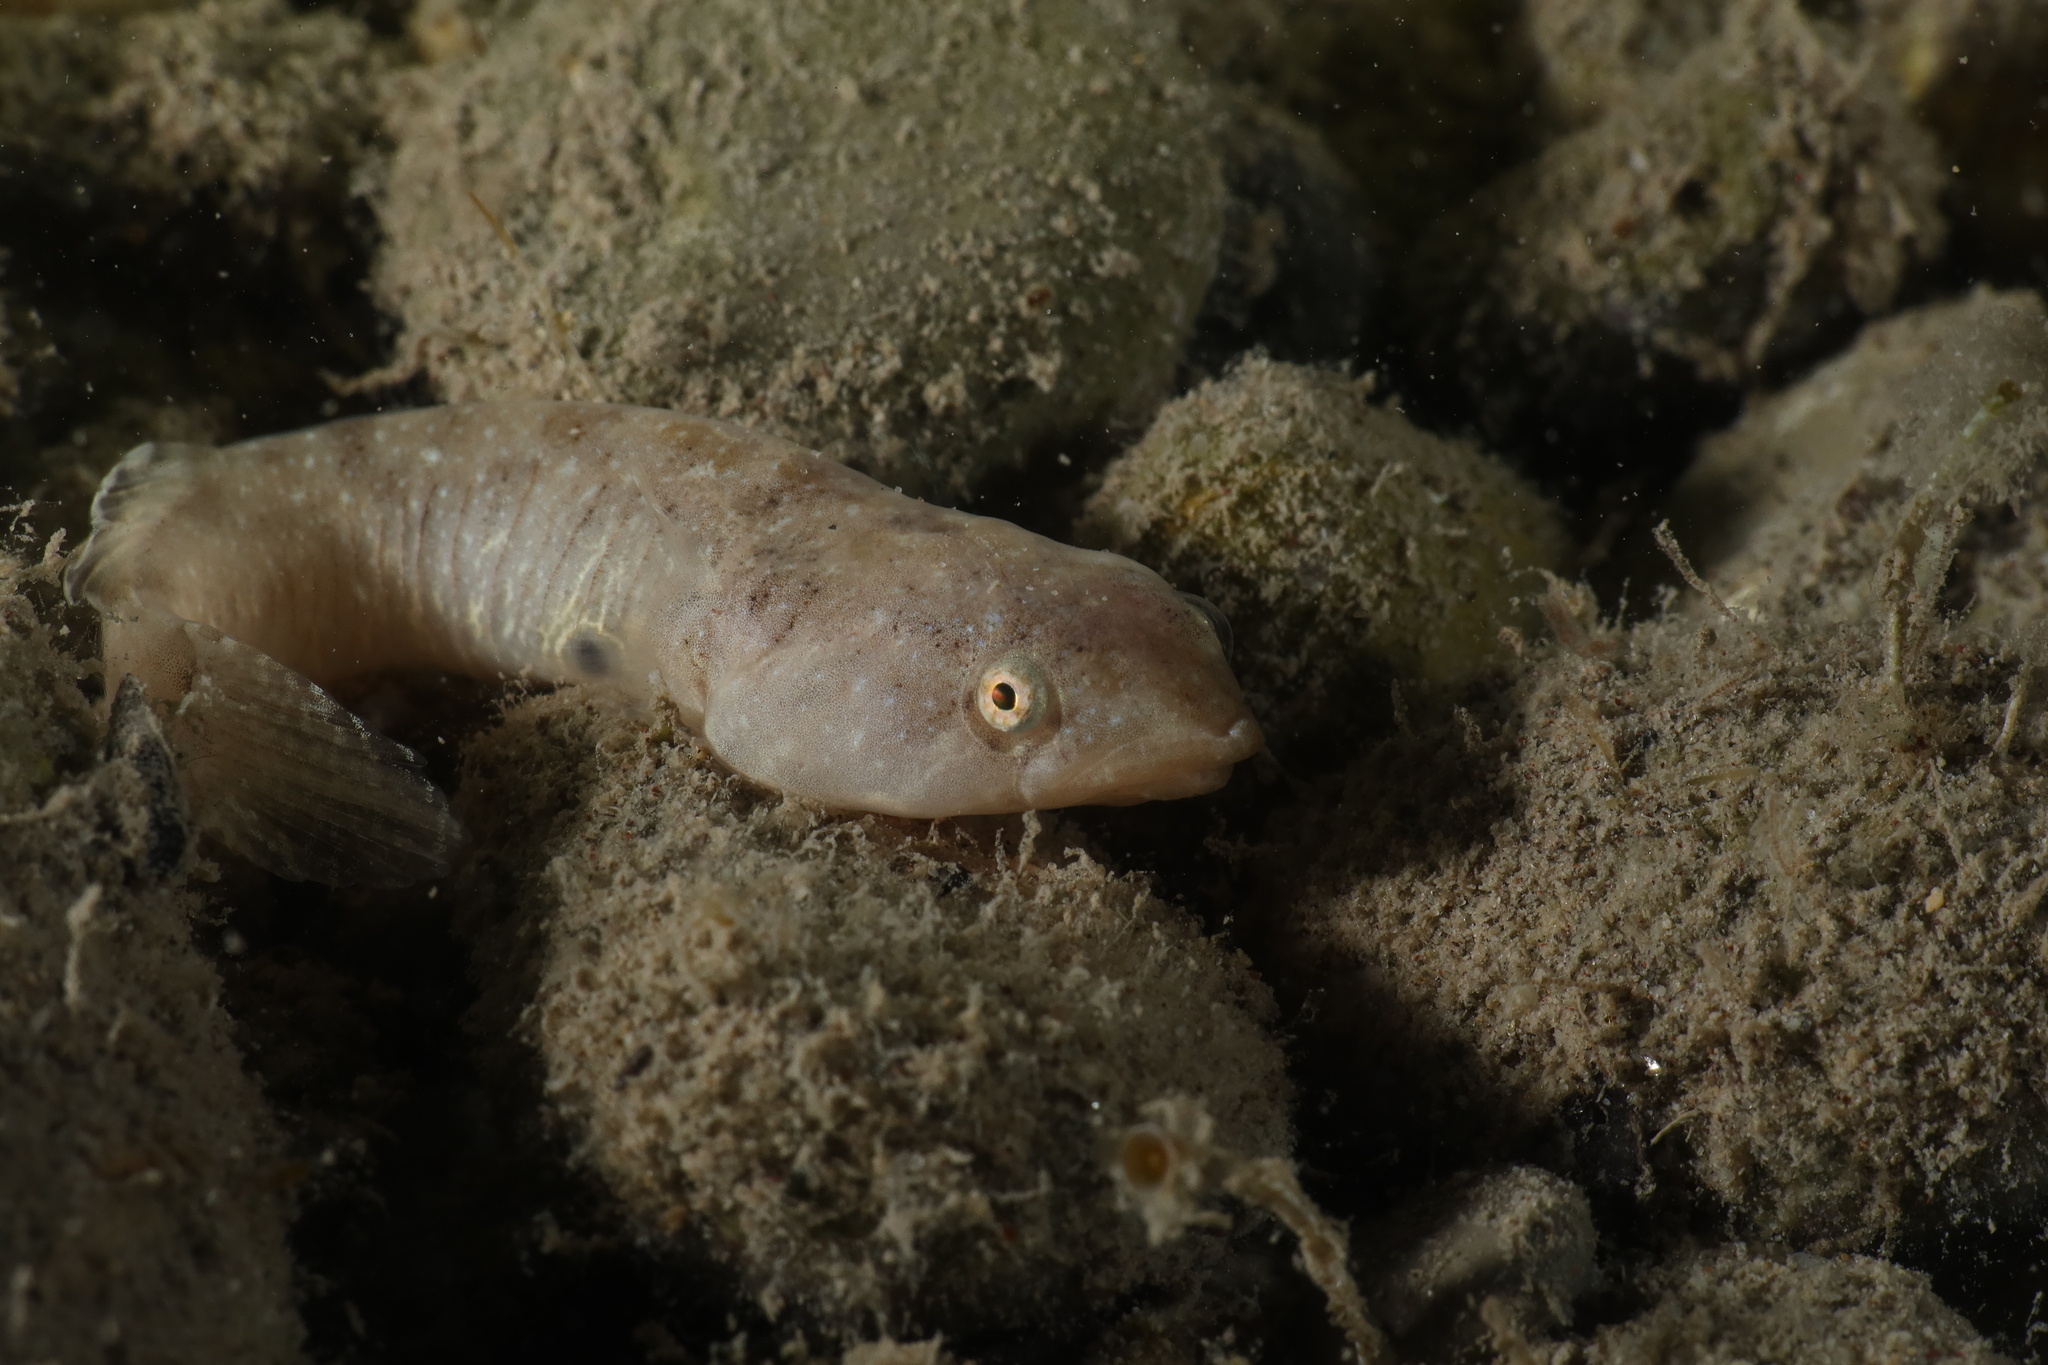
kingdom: Animalia
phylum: Chordata
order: Gobiesociformes
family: Gobiesocidae
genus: Diplecogaster
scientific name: Diplecogaster bimaculata
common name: Two-spotted clingfish
